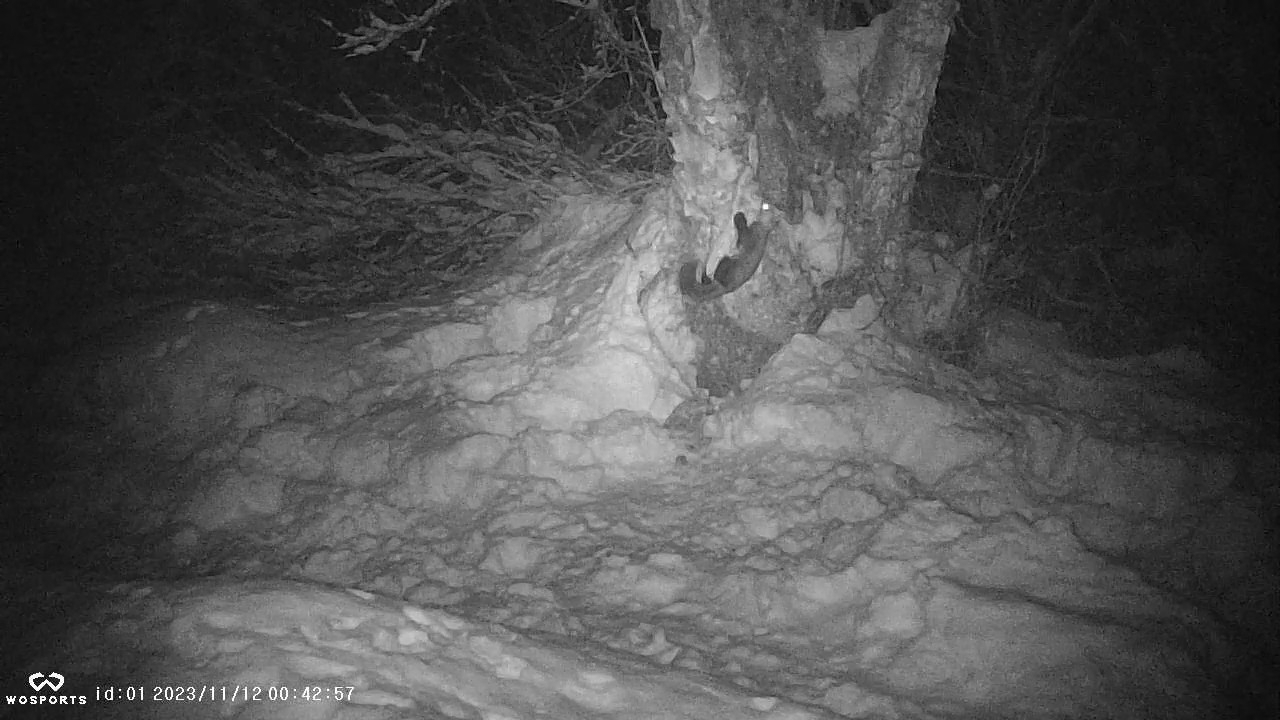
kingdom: Animalia
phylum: Chordata
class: Mammalia
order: Carnivora
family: Mustelidae
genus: Martes
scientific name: Martes americana
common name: American marten
